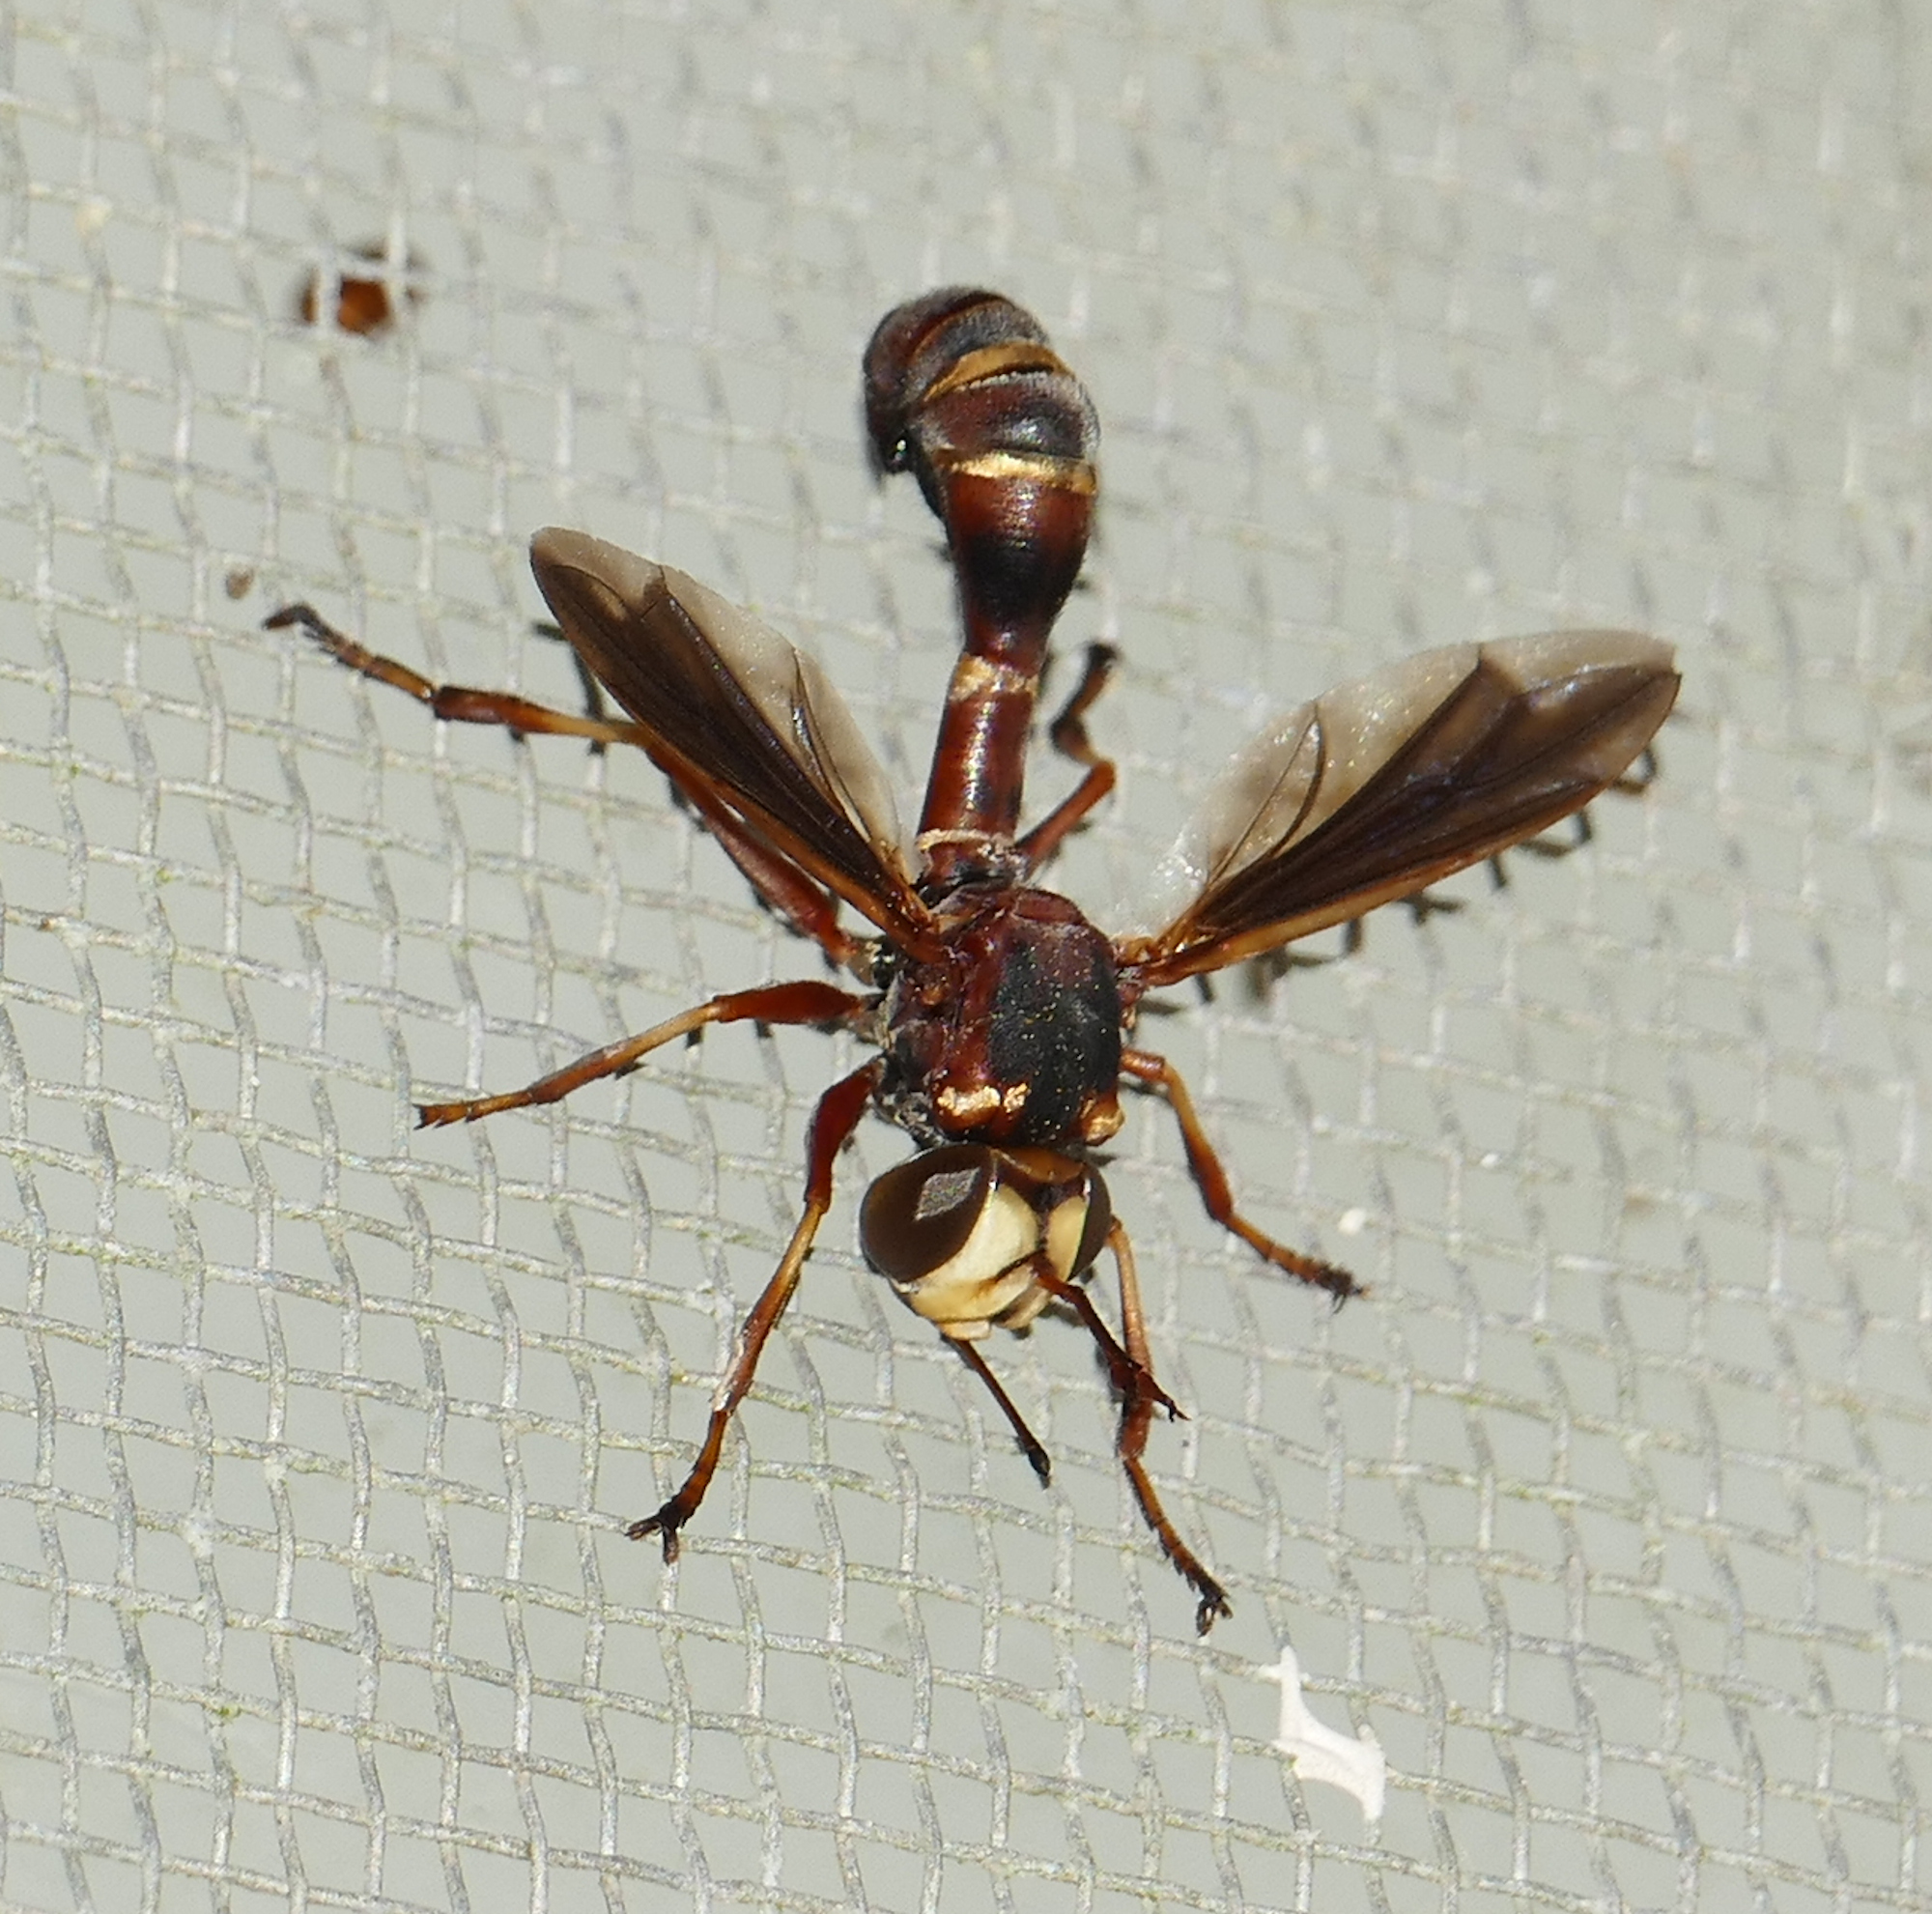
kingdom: Animalia
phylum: Arthropoda
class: Insecta
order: Diptera
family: Conopidae
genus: Physocephala
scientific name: Physocephala sagittaria
